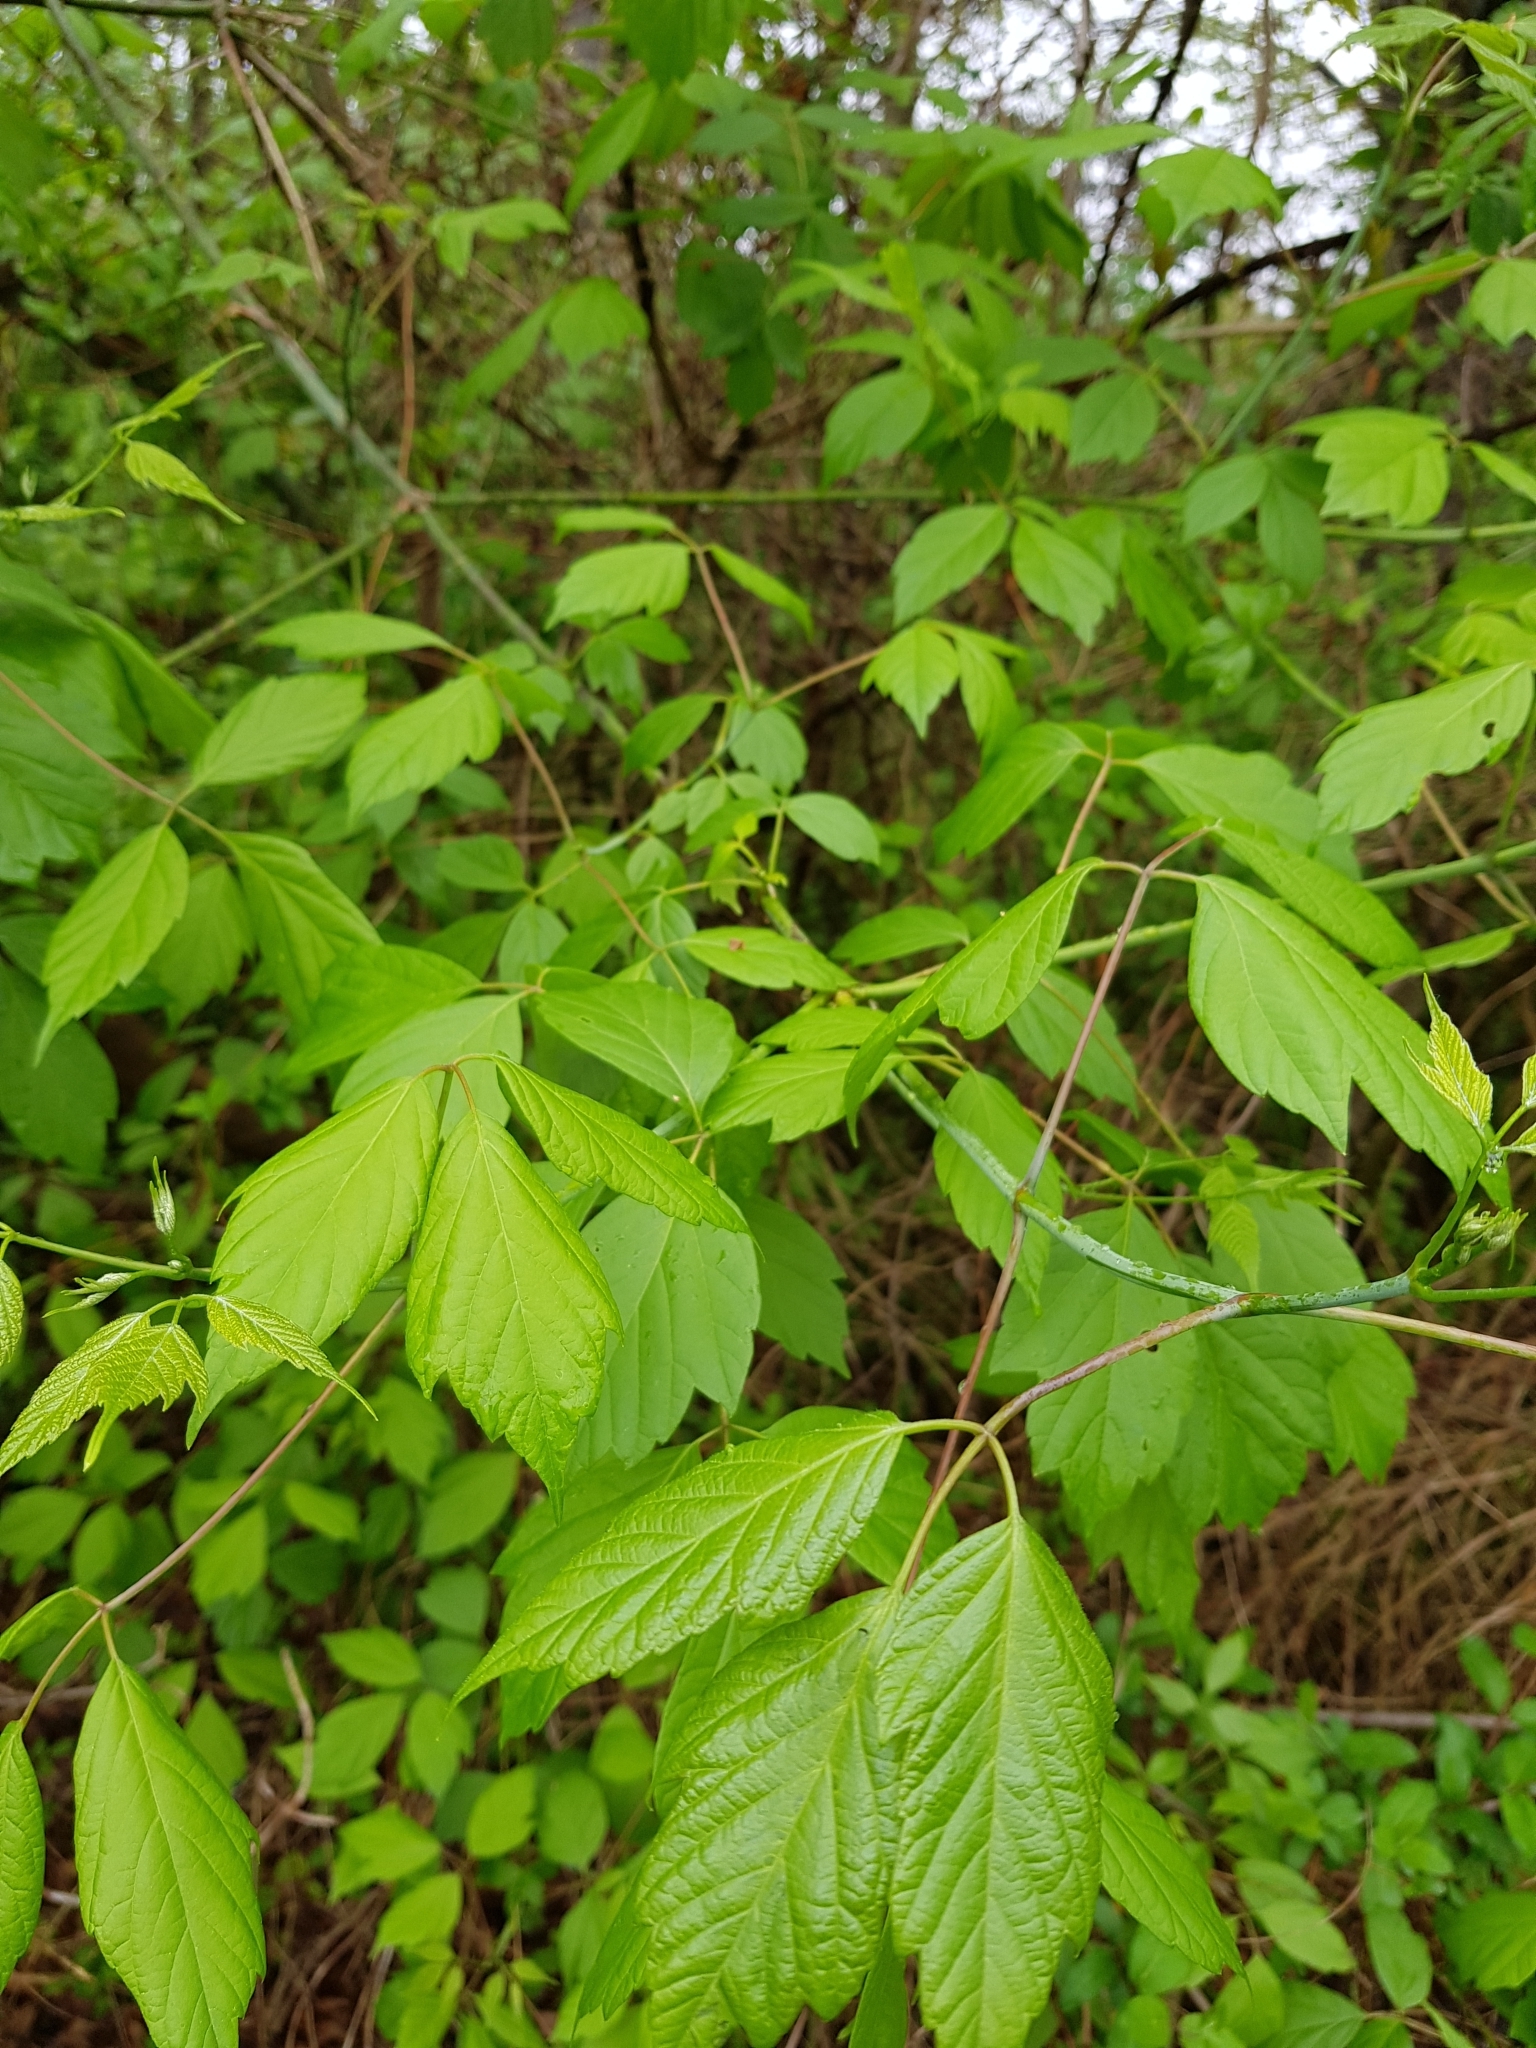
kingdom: Plantae
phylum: Tracheophyta
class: Magnoliopsida
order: Sapindales
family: Sapindaceae
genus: Acer
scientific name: Acer negundo
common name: Ashleaf maple
